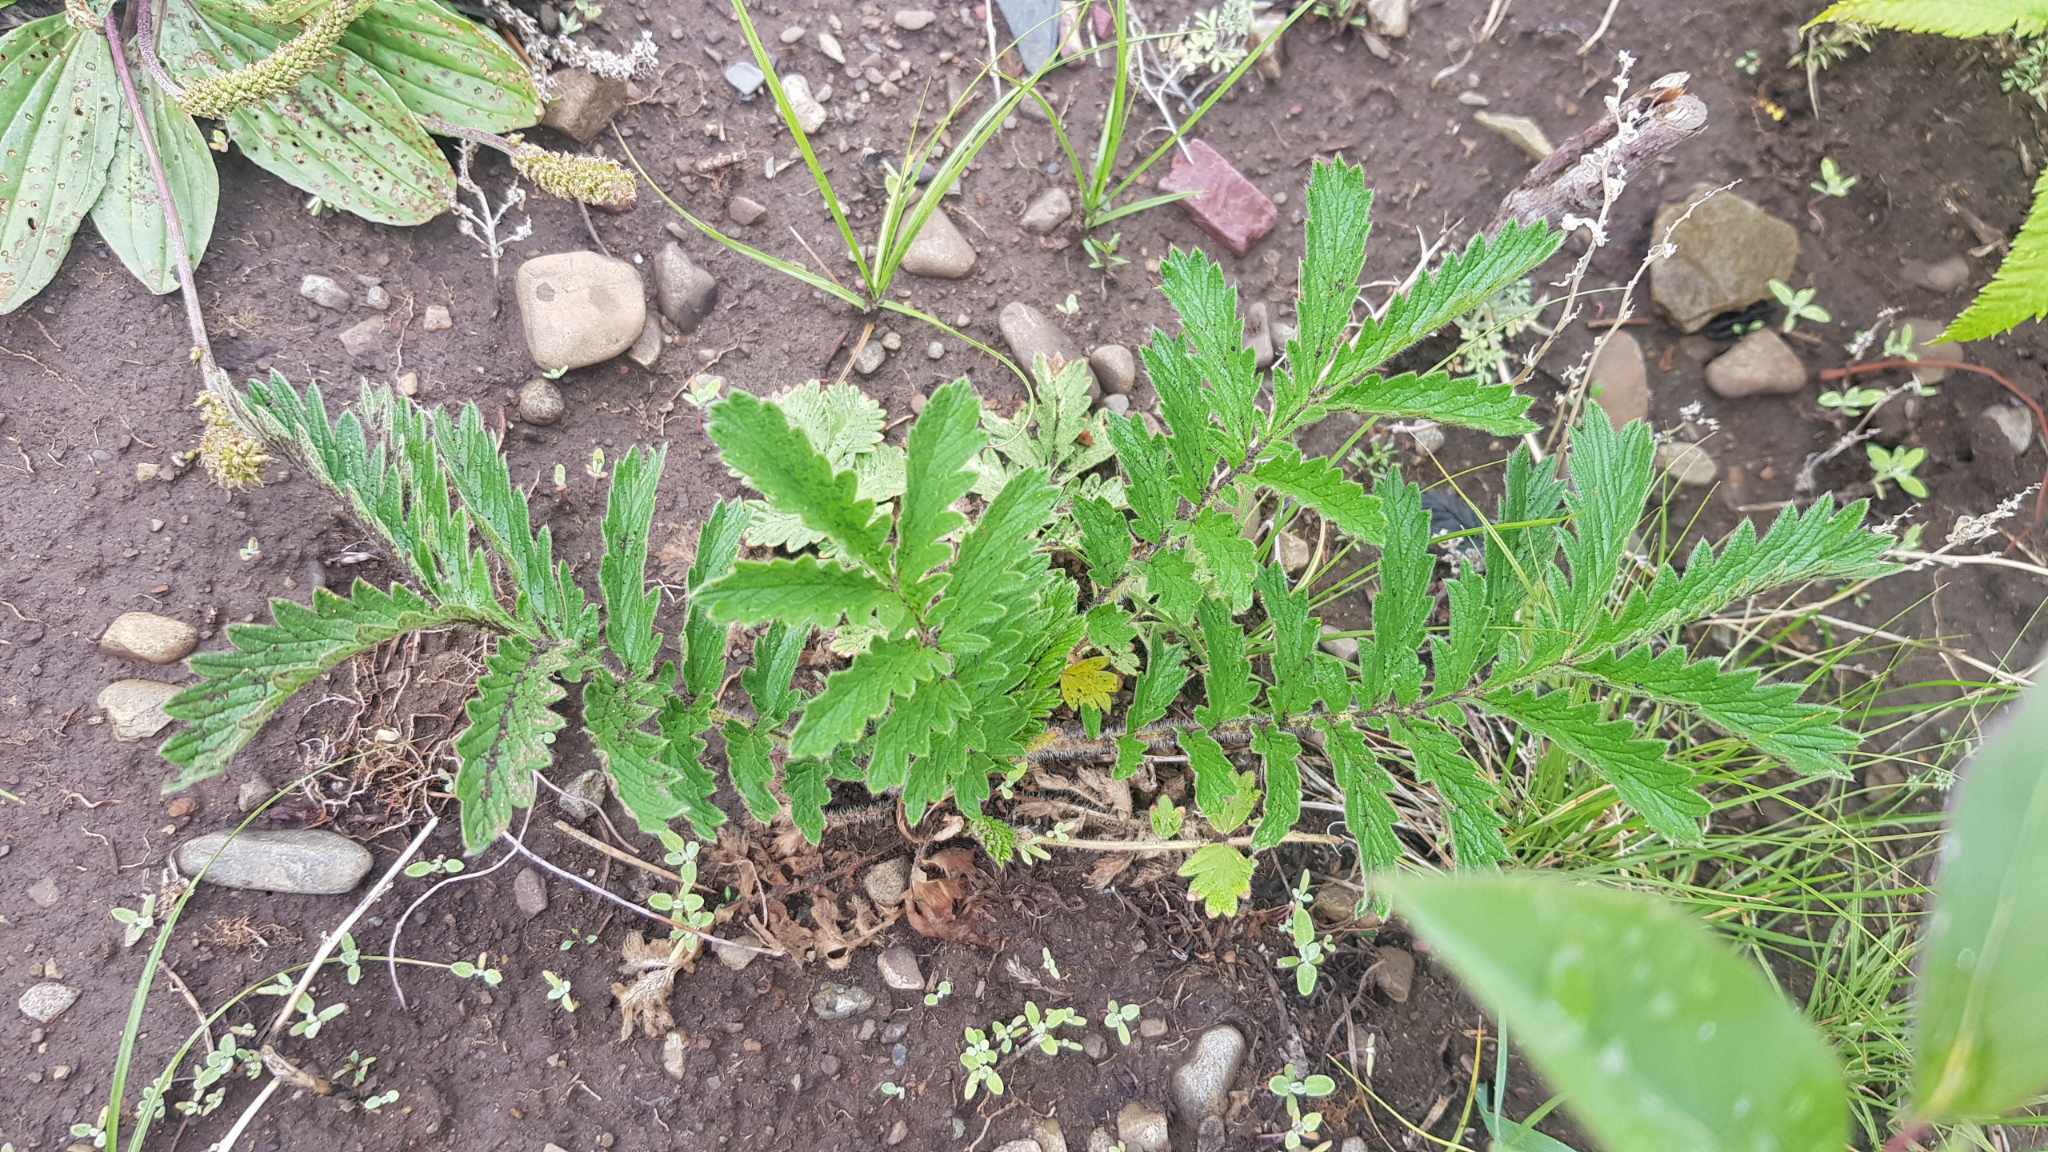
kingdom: Plantae
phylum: Tracheophyta
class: Magnoliopsida
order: Rosales
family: Rosaceae
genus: Potentilla
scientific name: Potentilla tanacetifolia
